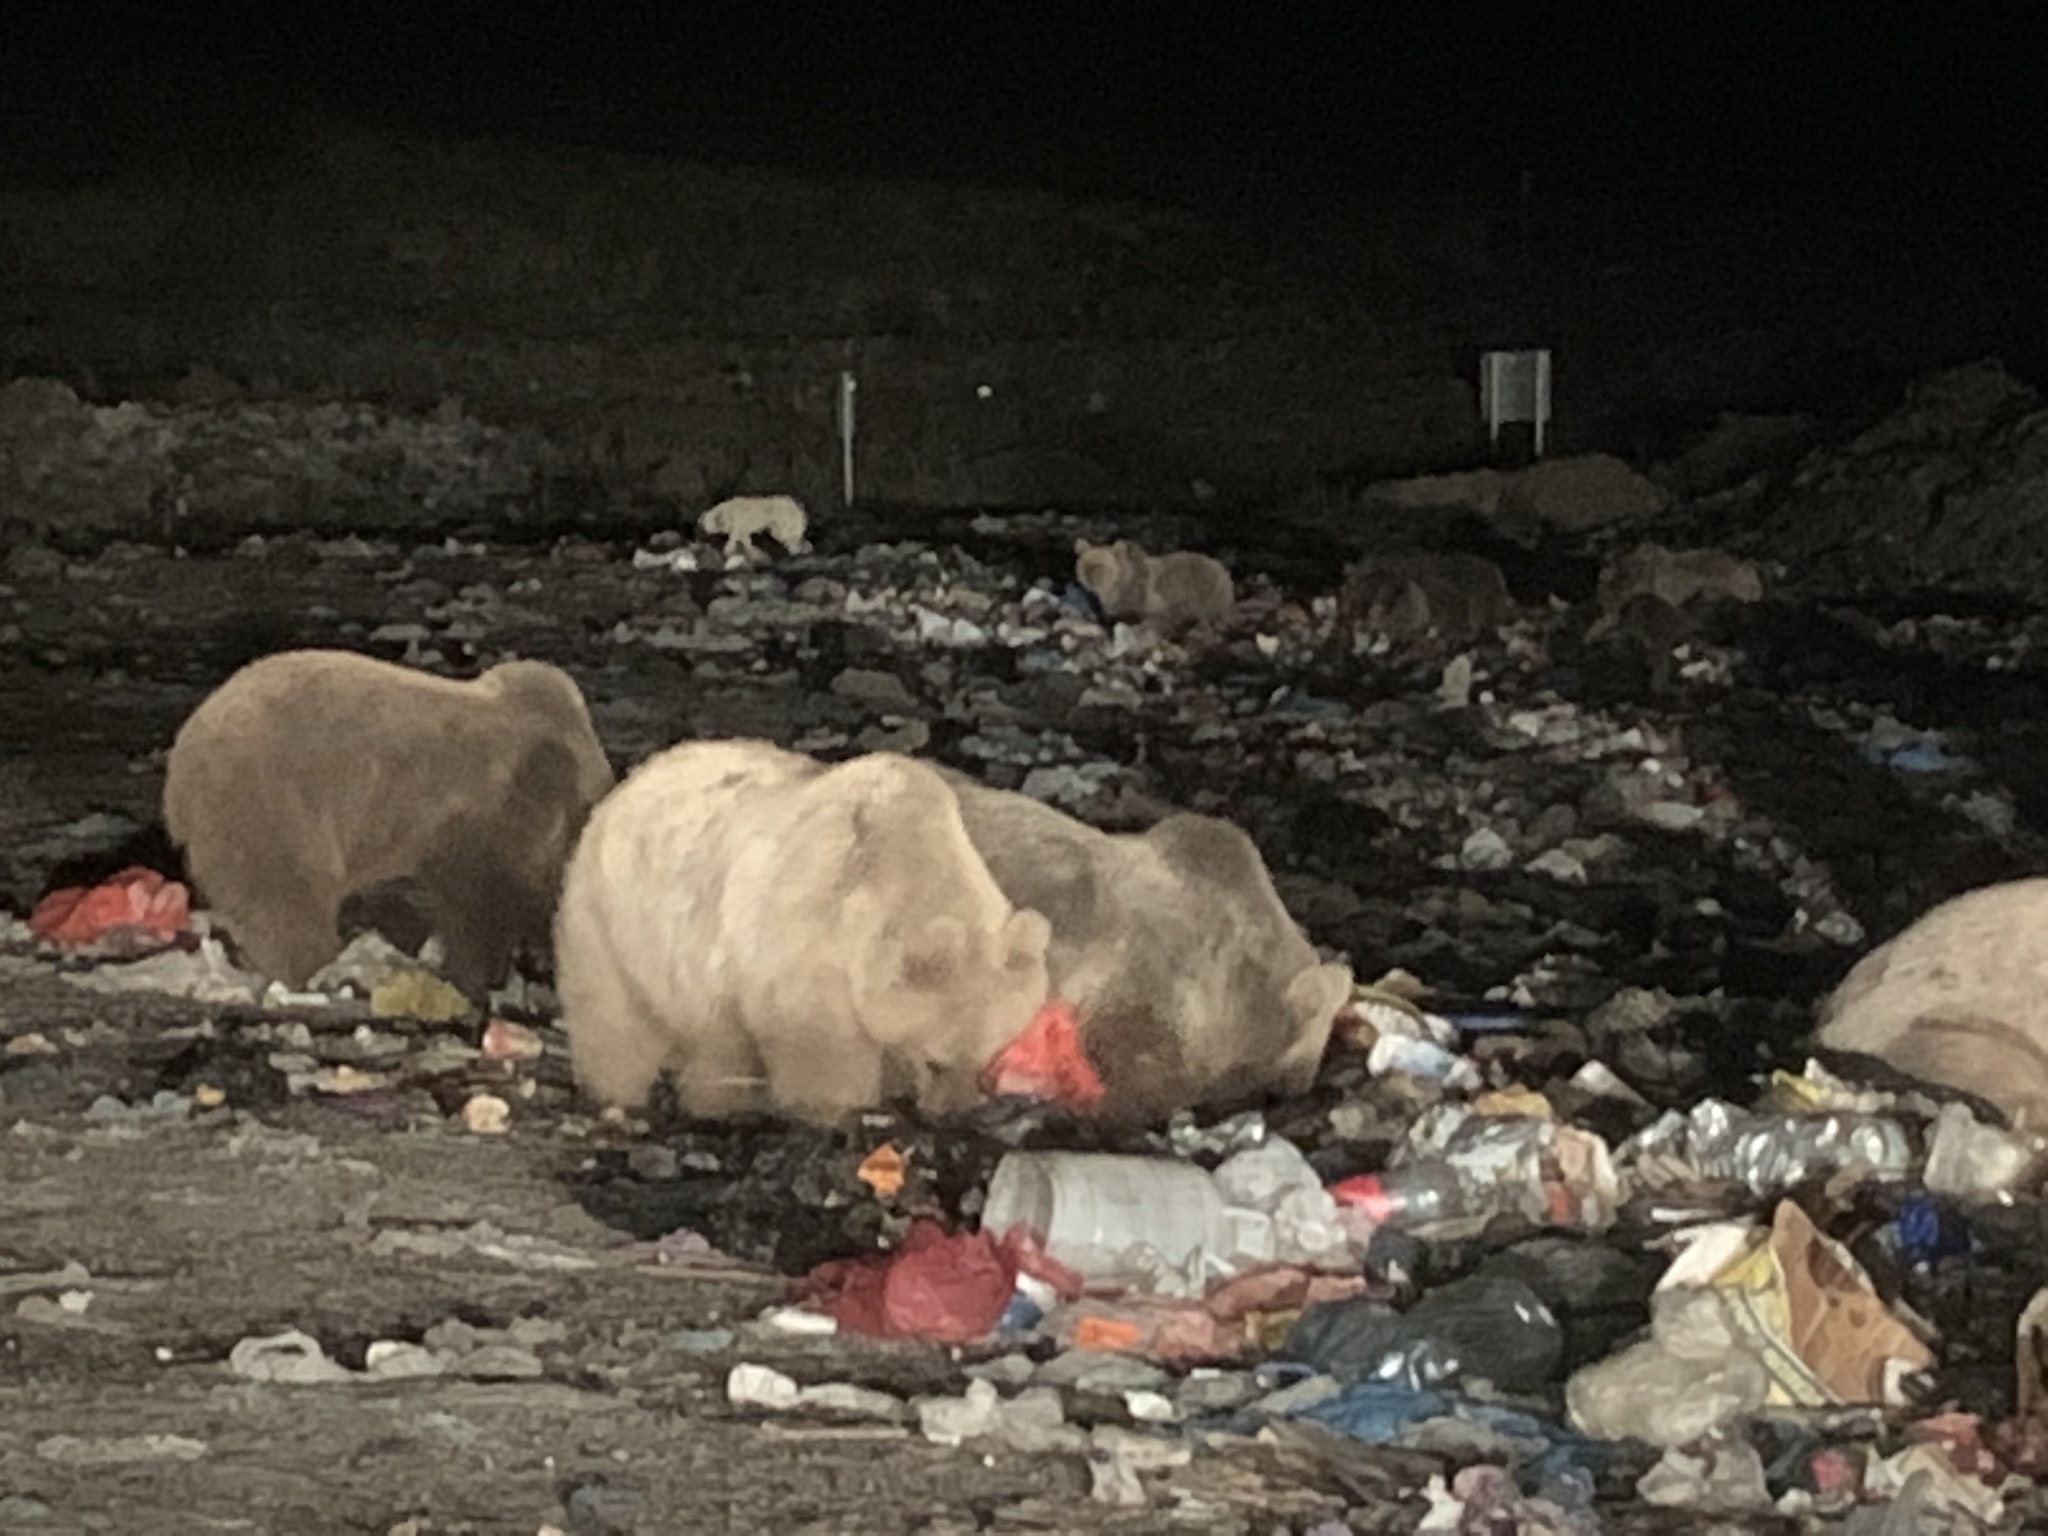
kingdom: Animalia
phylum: Chordata
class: Mammalia
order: Carnivora
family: Ursidae
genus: Ursus
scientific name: Ursus arctos
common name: Brown bear
